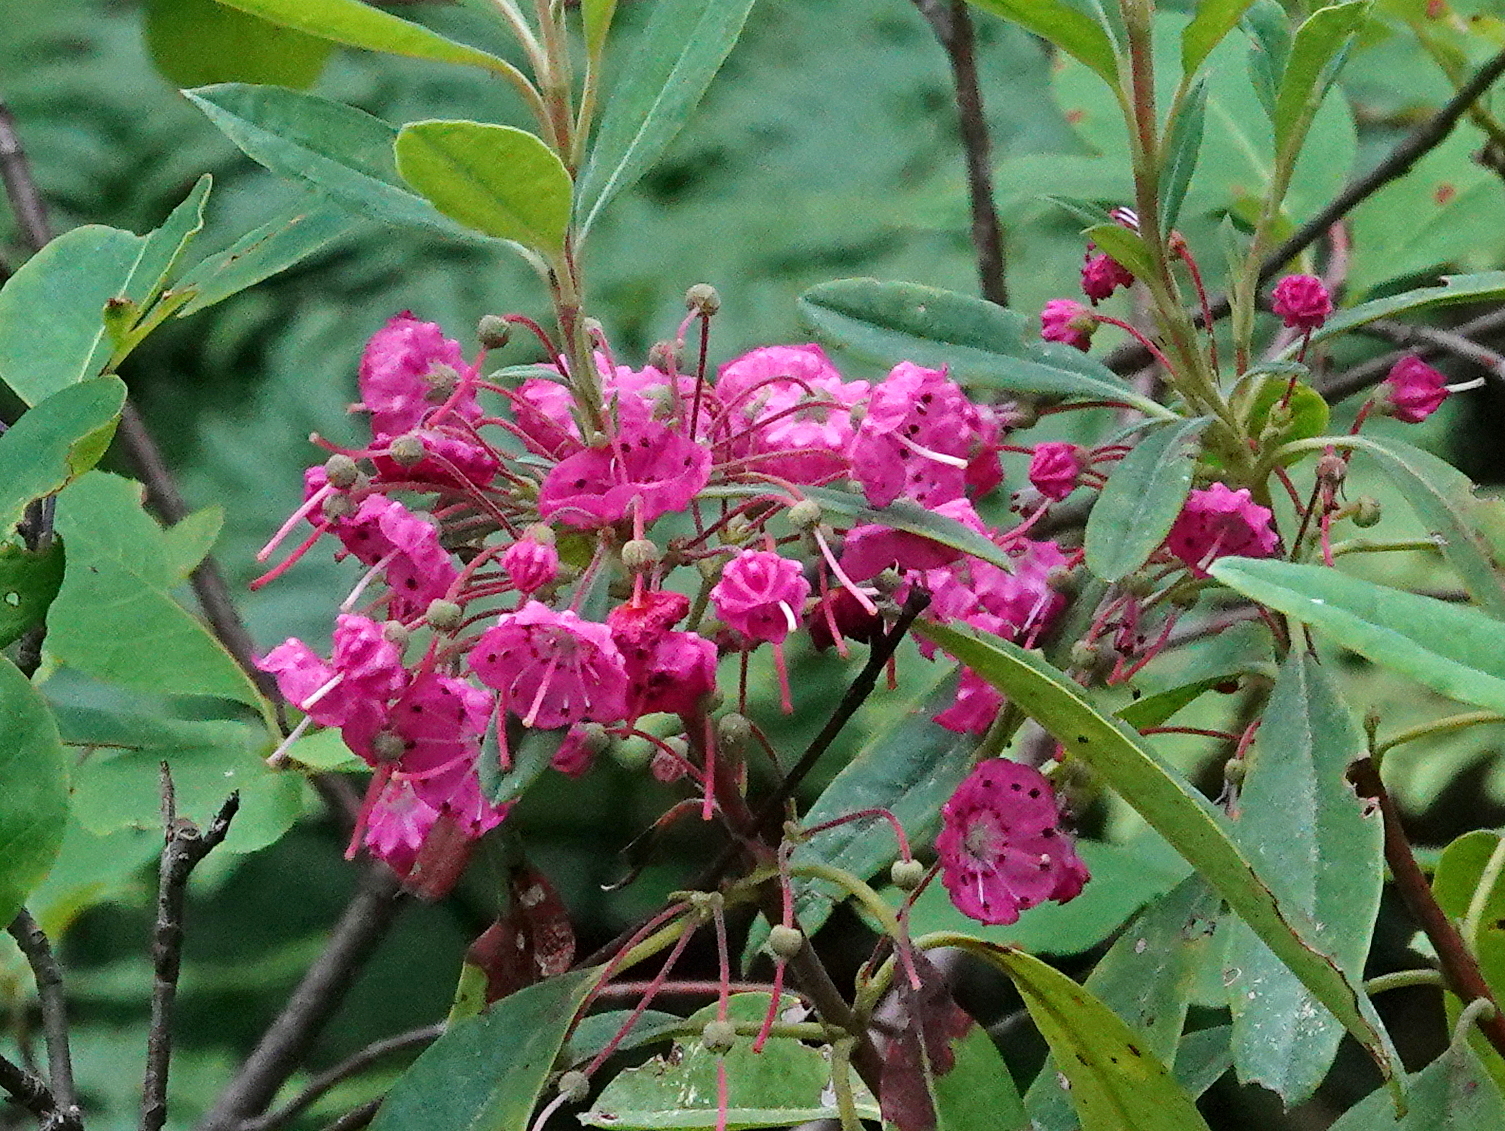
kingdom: Plantae
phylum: Tracheophyta
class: Magnoliopsida
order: Ericales
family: Ericaceae
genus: Kalmia
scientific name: Kalmia angustifolia
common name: Sheep-laurel
